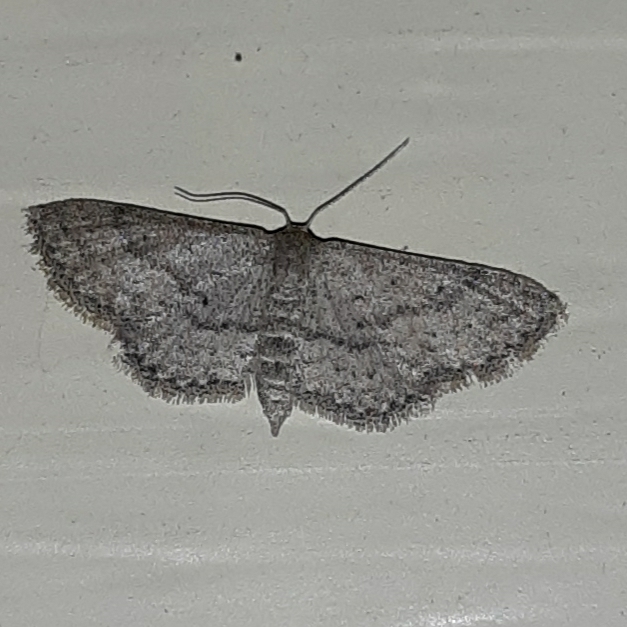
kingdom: Animalia
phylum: Arthropoda
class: Insecta
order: Lepidoptera
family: Geometridae
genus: Lobocleta
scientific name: Lobocleta ossularia
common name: Drab brown wave
